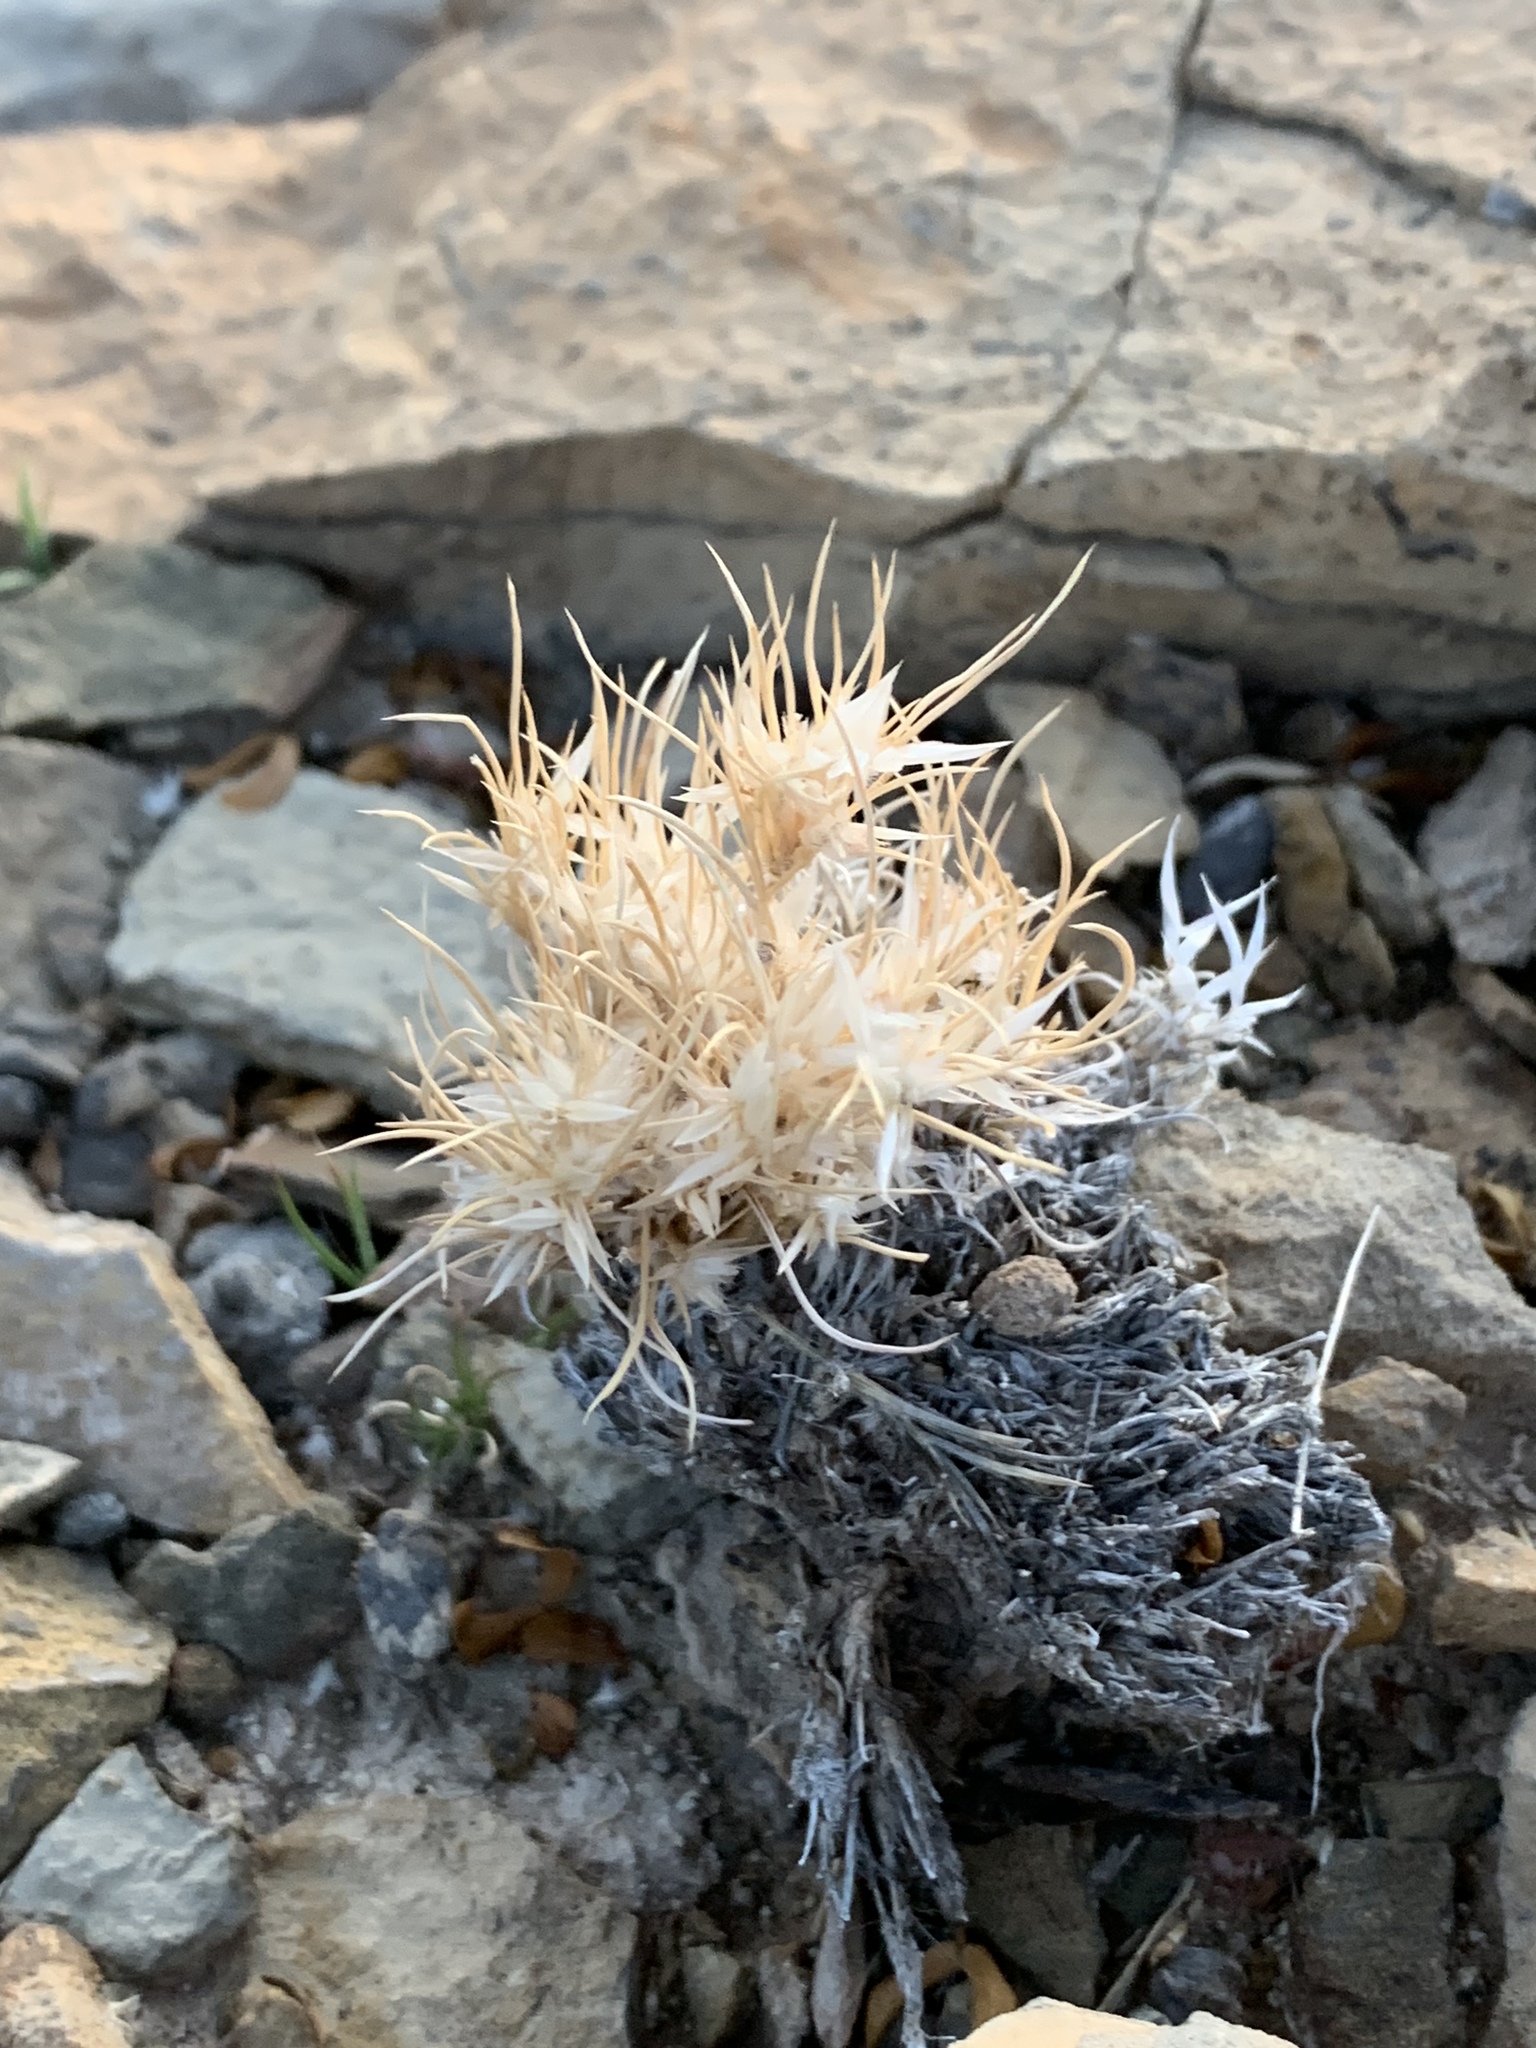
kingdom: Plantae
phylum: Tracheophyta
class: Liliopsida
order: Poales
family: Poaceae
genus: Dasyochloa
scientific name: Dasyochloa pulchella
